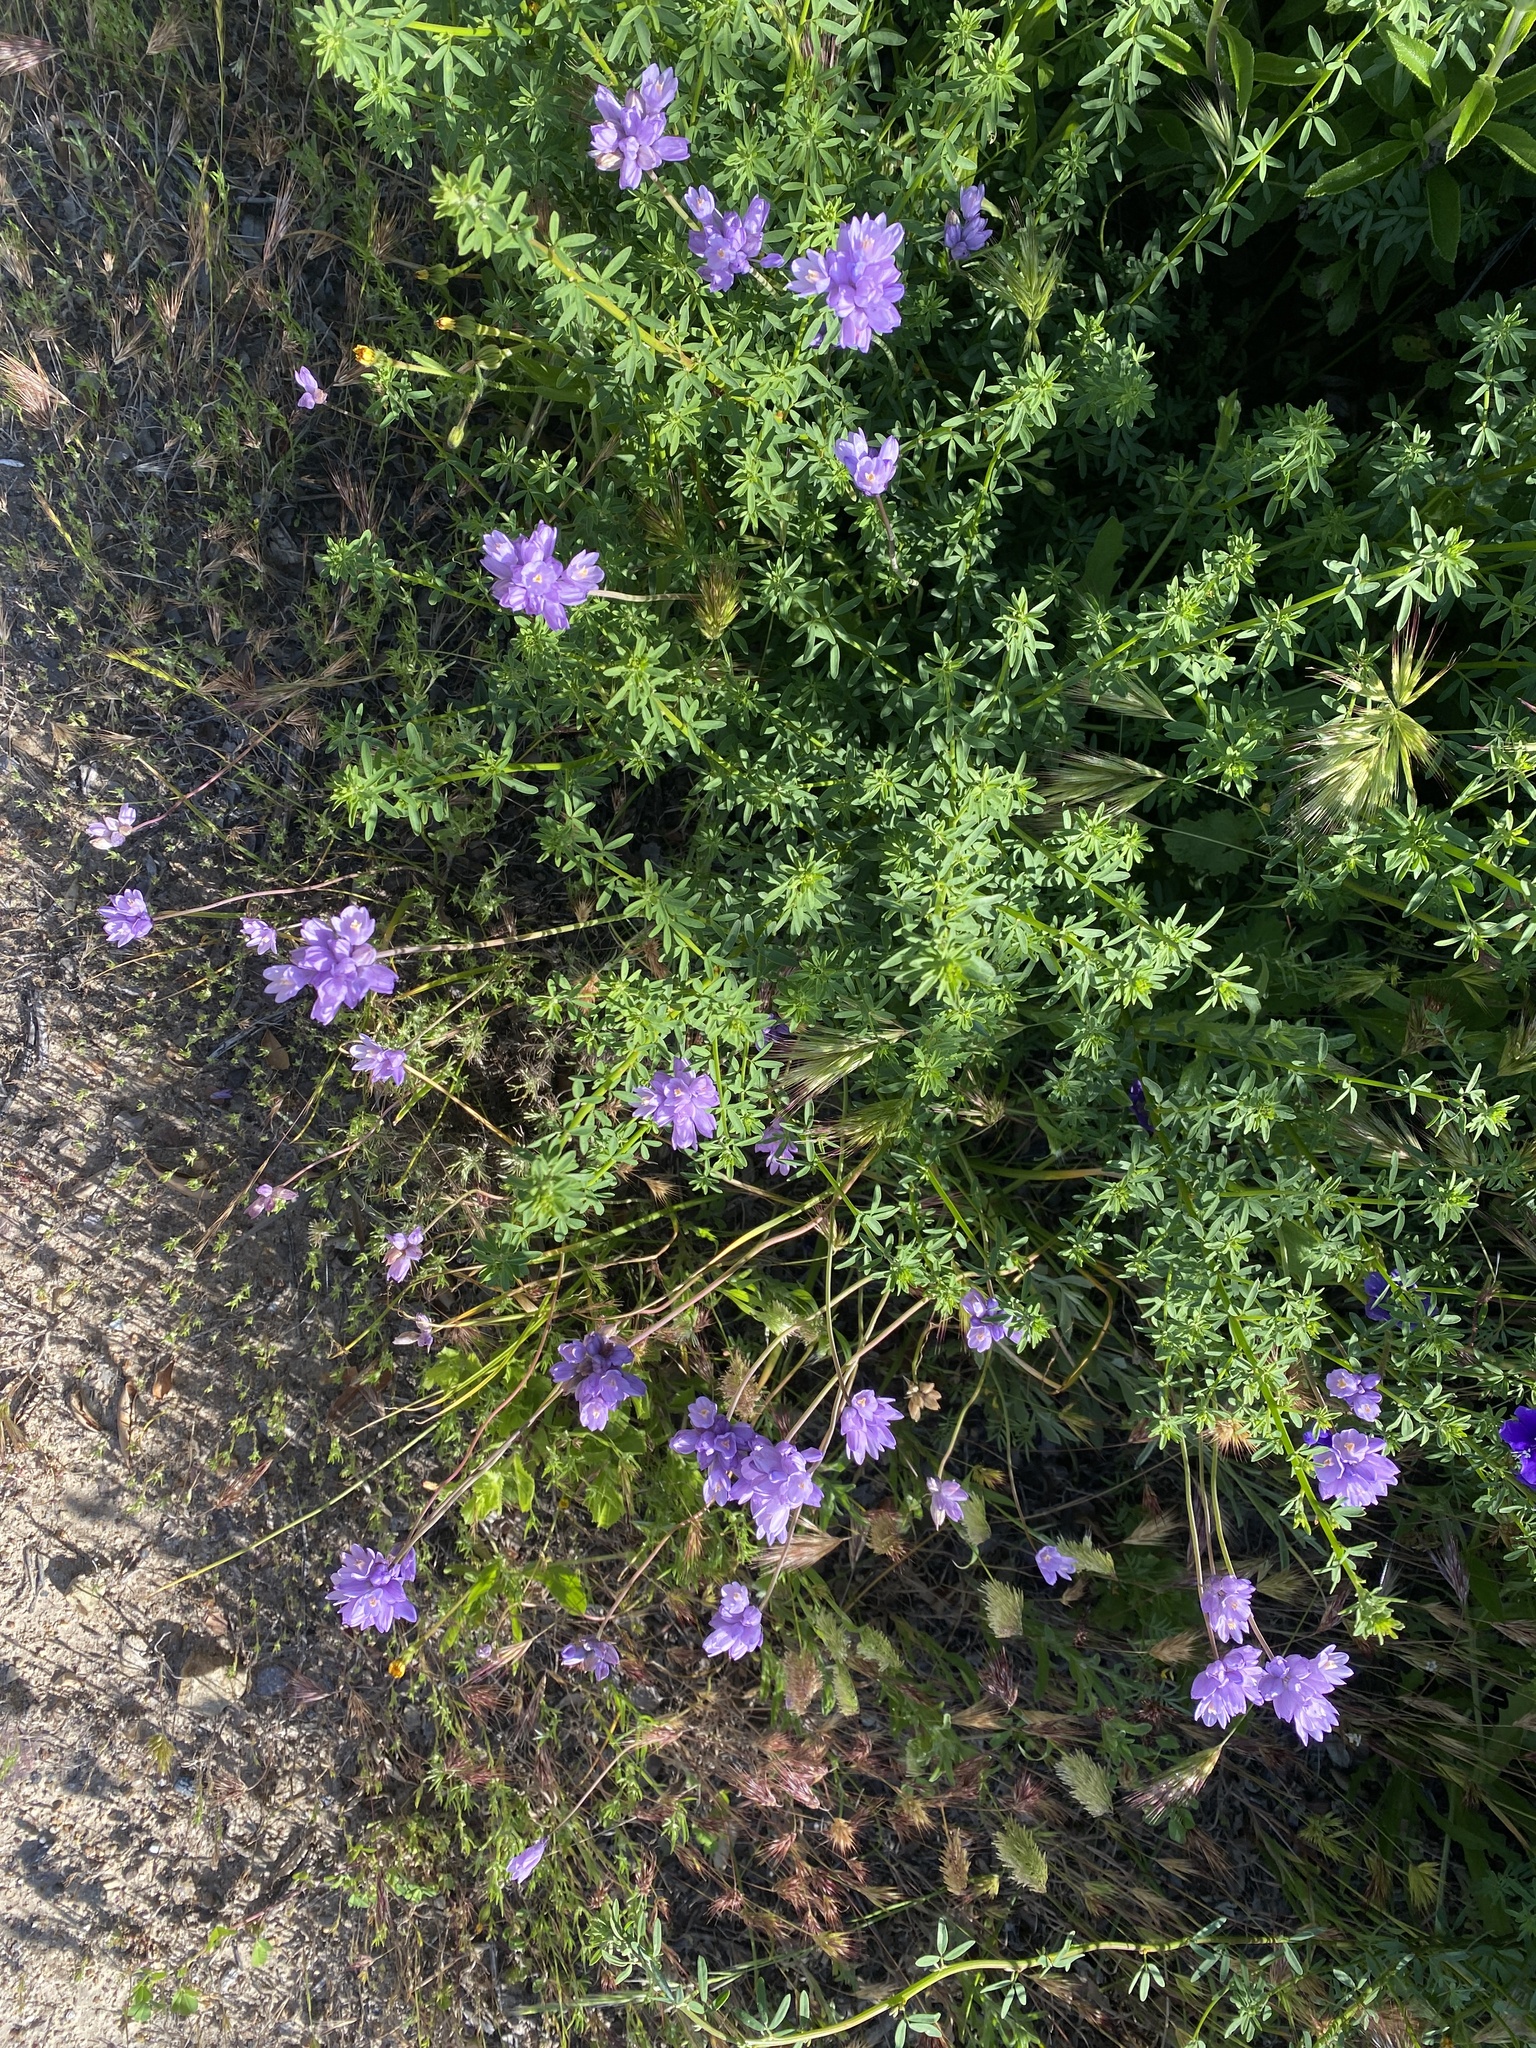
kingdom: Plantae
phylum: Tracheophyta
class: Liliopsida
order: Asparagales
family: Asparagaceae
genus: Dipterostemon
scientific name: Dipterostemon capitatus
